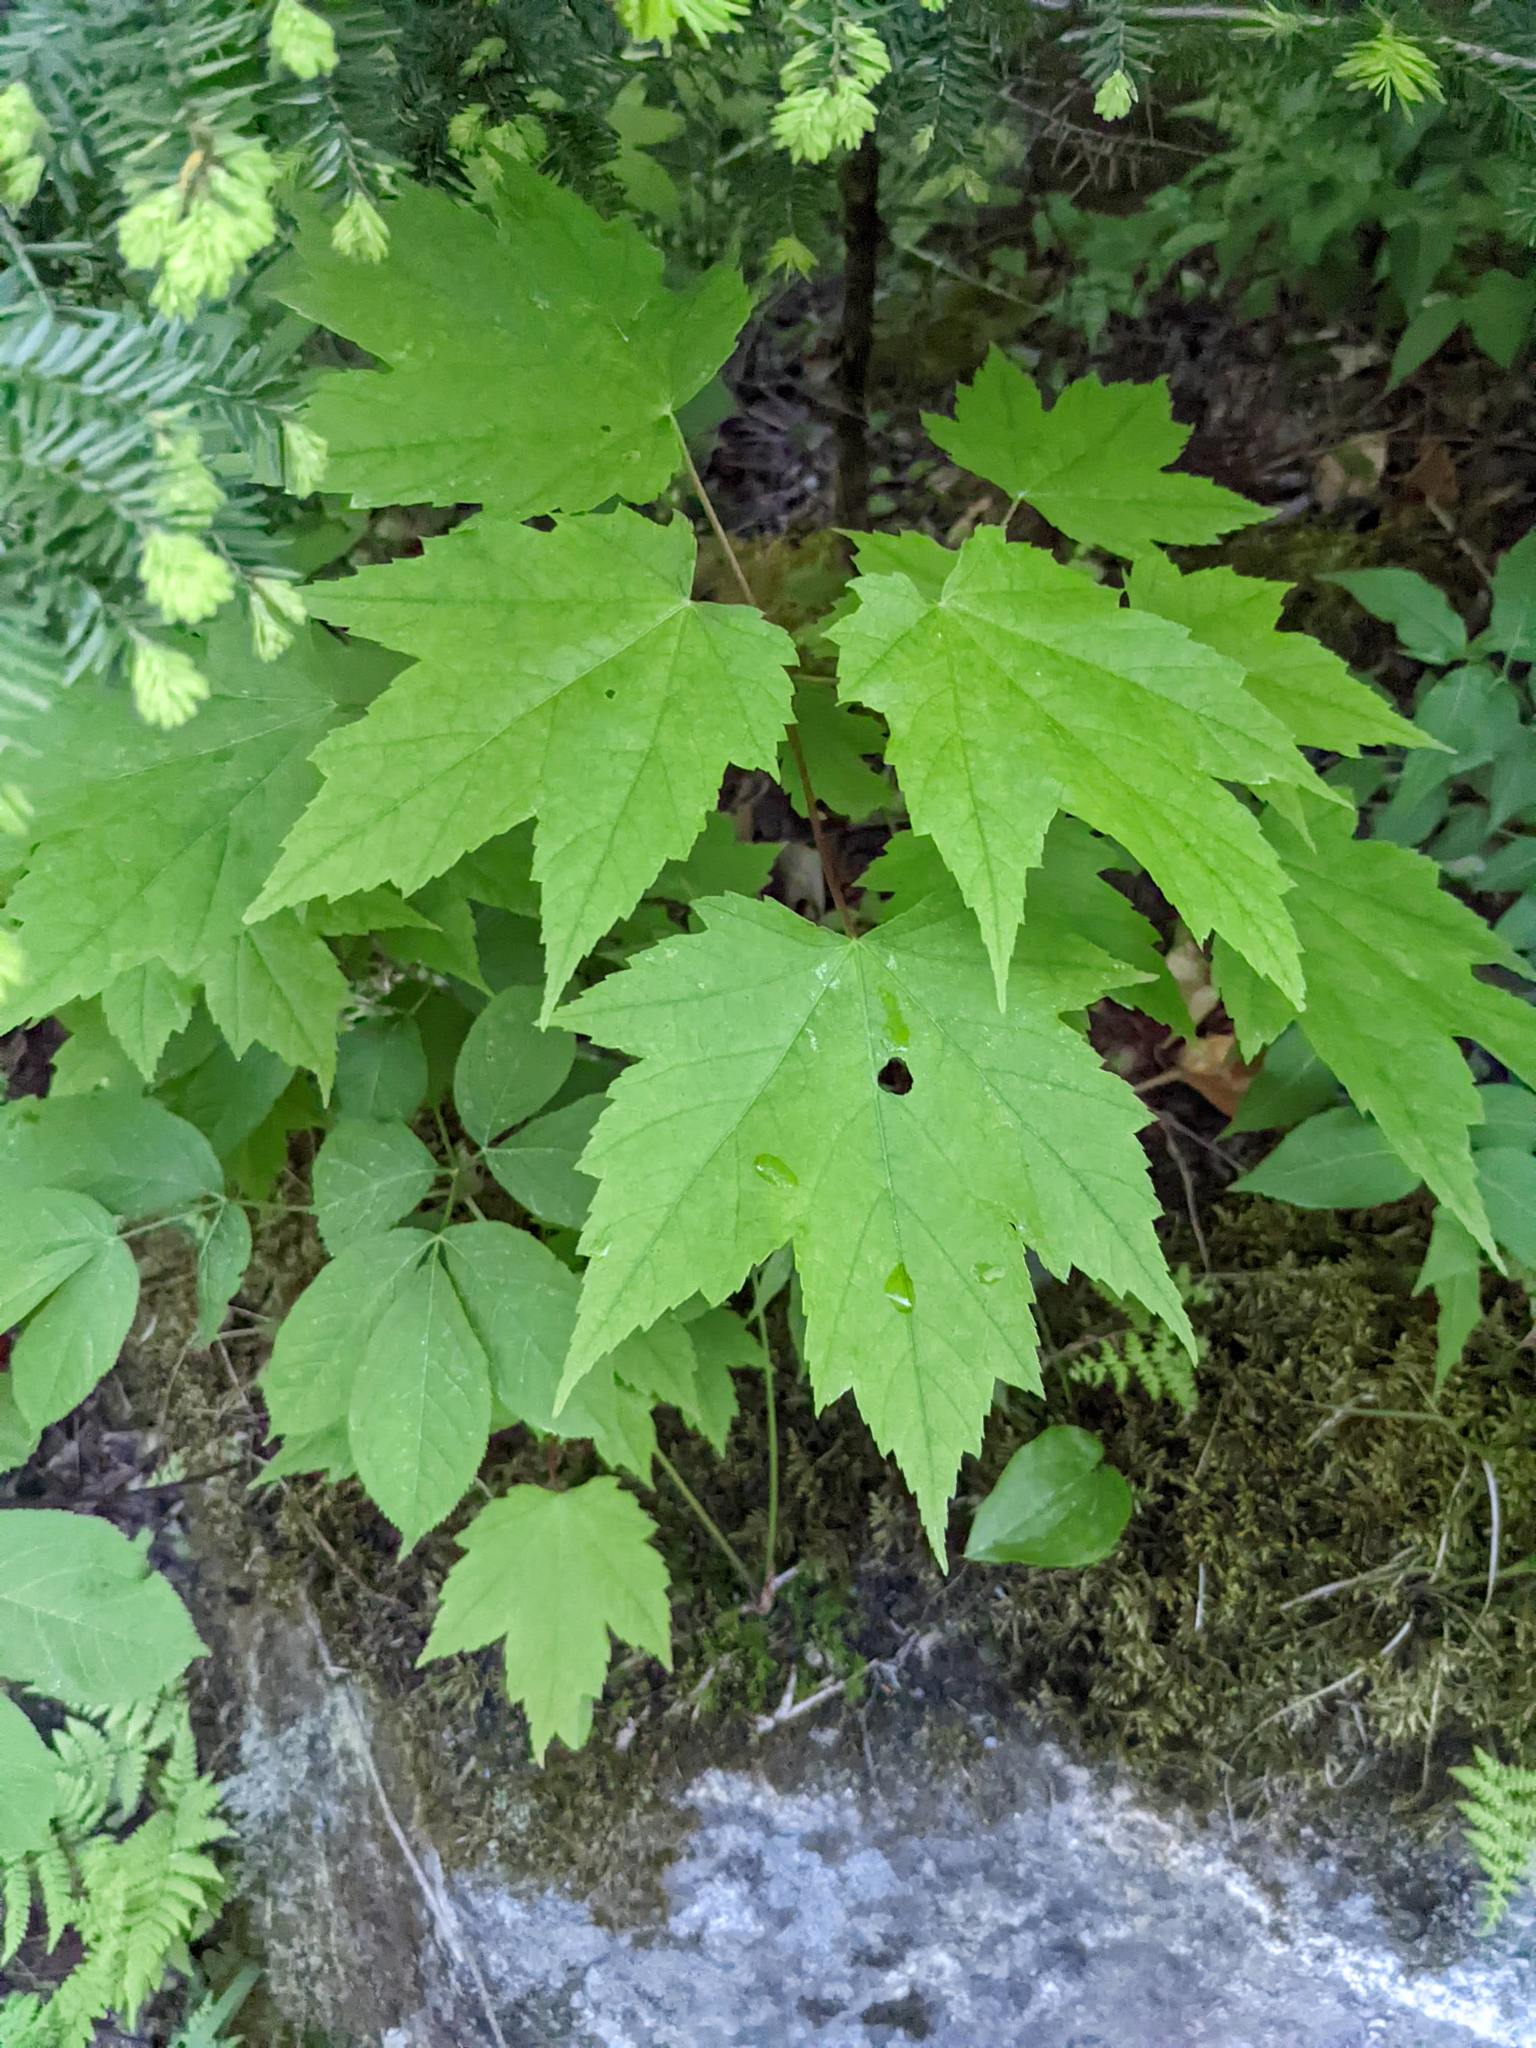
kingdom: Plantae
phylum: Tracheophyta
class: Magnoliopsida
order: Sapindales
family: Sapindaceae
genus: Acer
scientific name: Acer rubrum
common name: Red maple
